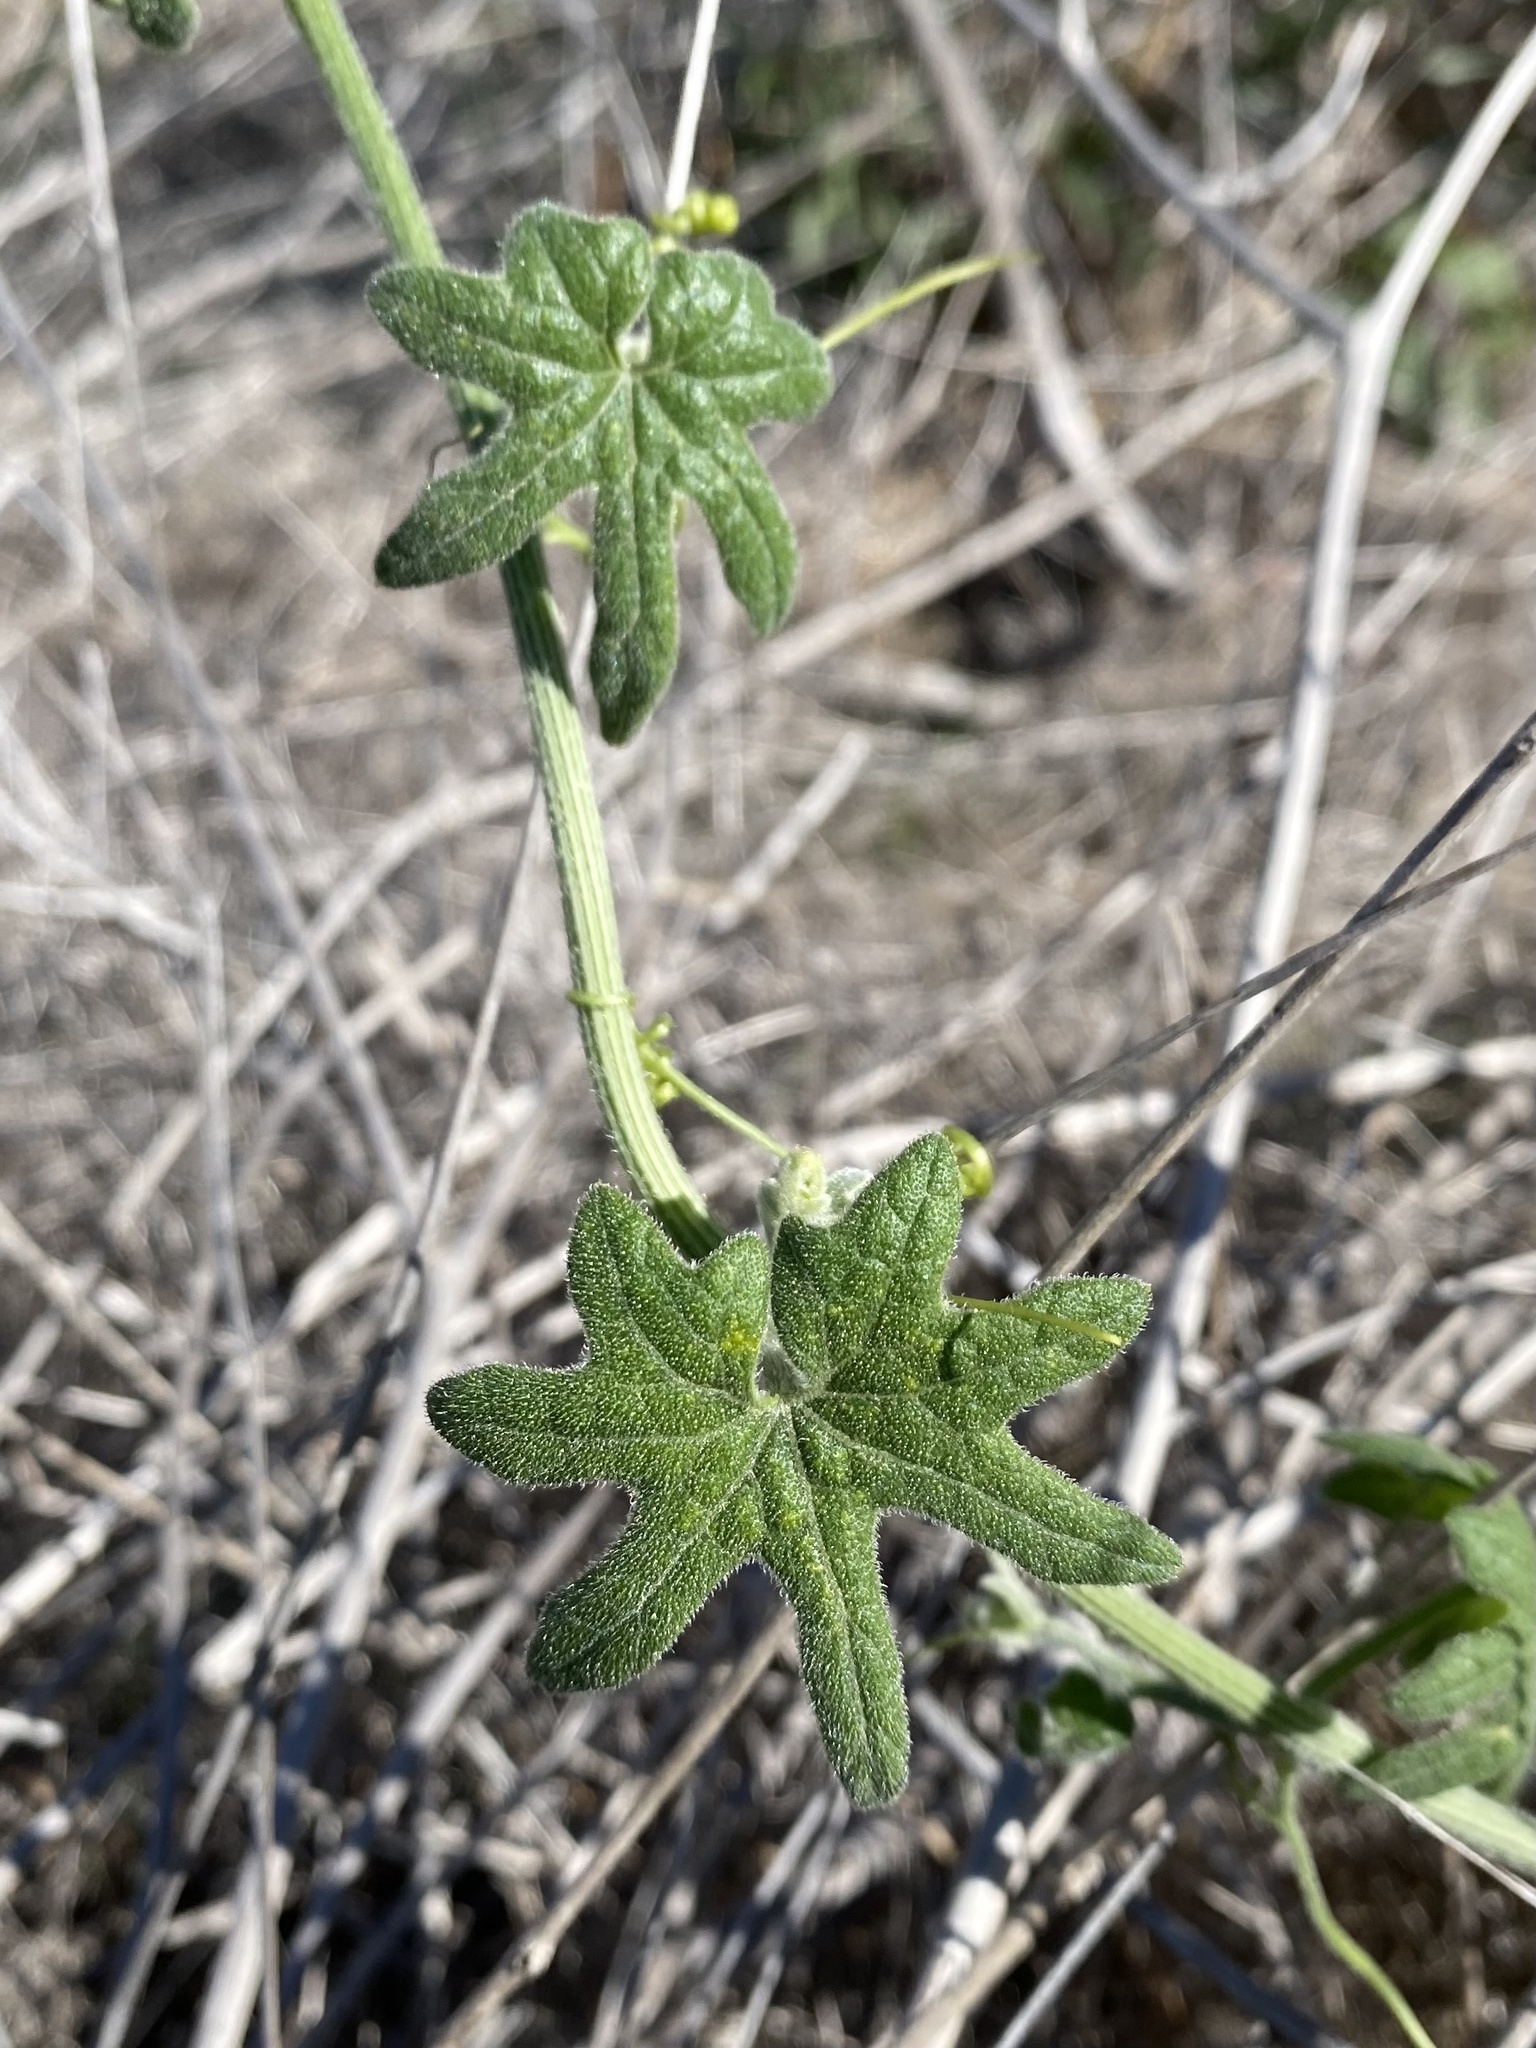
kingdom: Plantae
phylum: Tracheophyta
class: Magnoliopsida
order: Cucurbitales
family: Cucurbitaceae
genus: Marah
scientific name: Marah macrocarpa
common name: Cucamonga manroot
